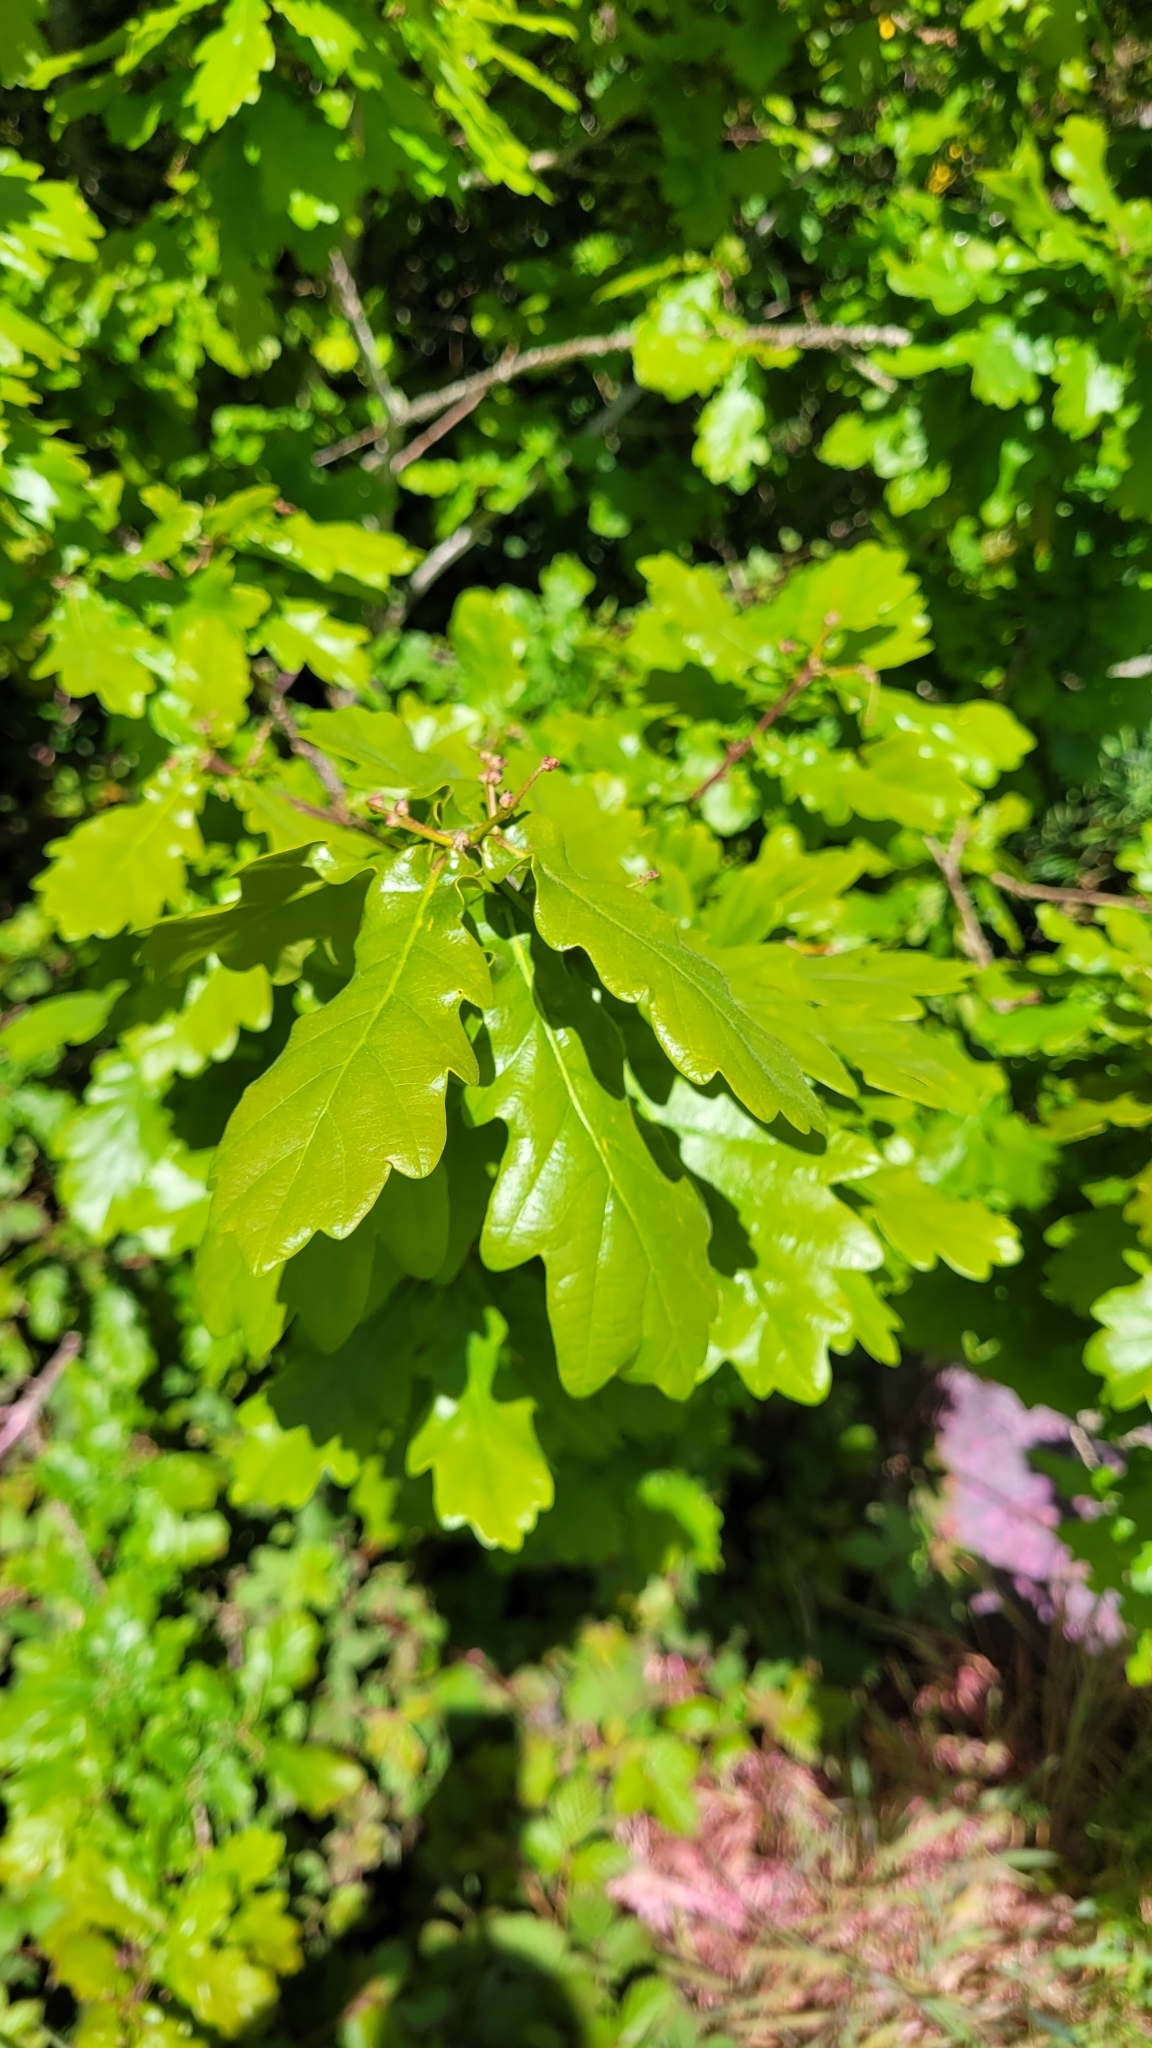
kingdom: Plantae
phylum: Tracheophyta
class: Magnoliopsida
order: Fagales
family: Fagaceae
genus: Quercus
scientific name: Quercus robur
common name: Pedunculate oak
